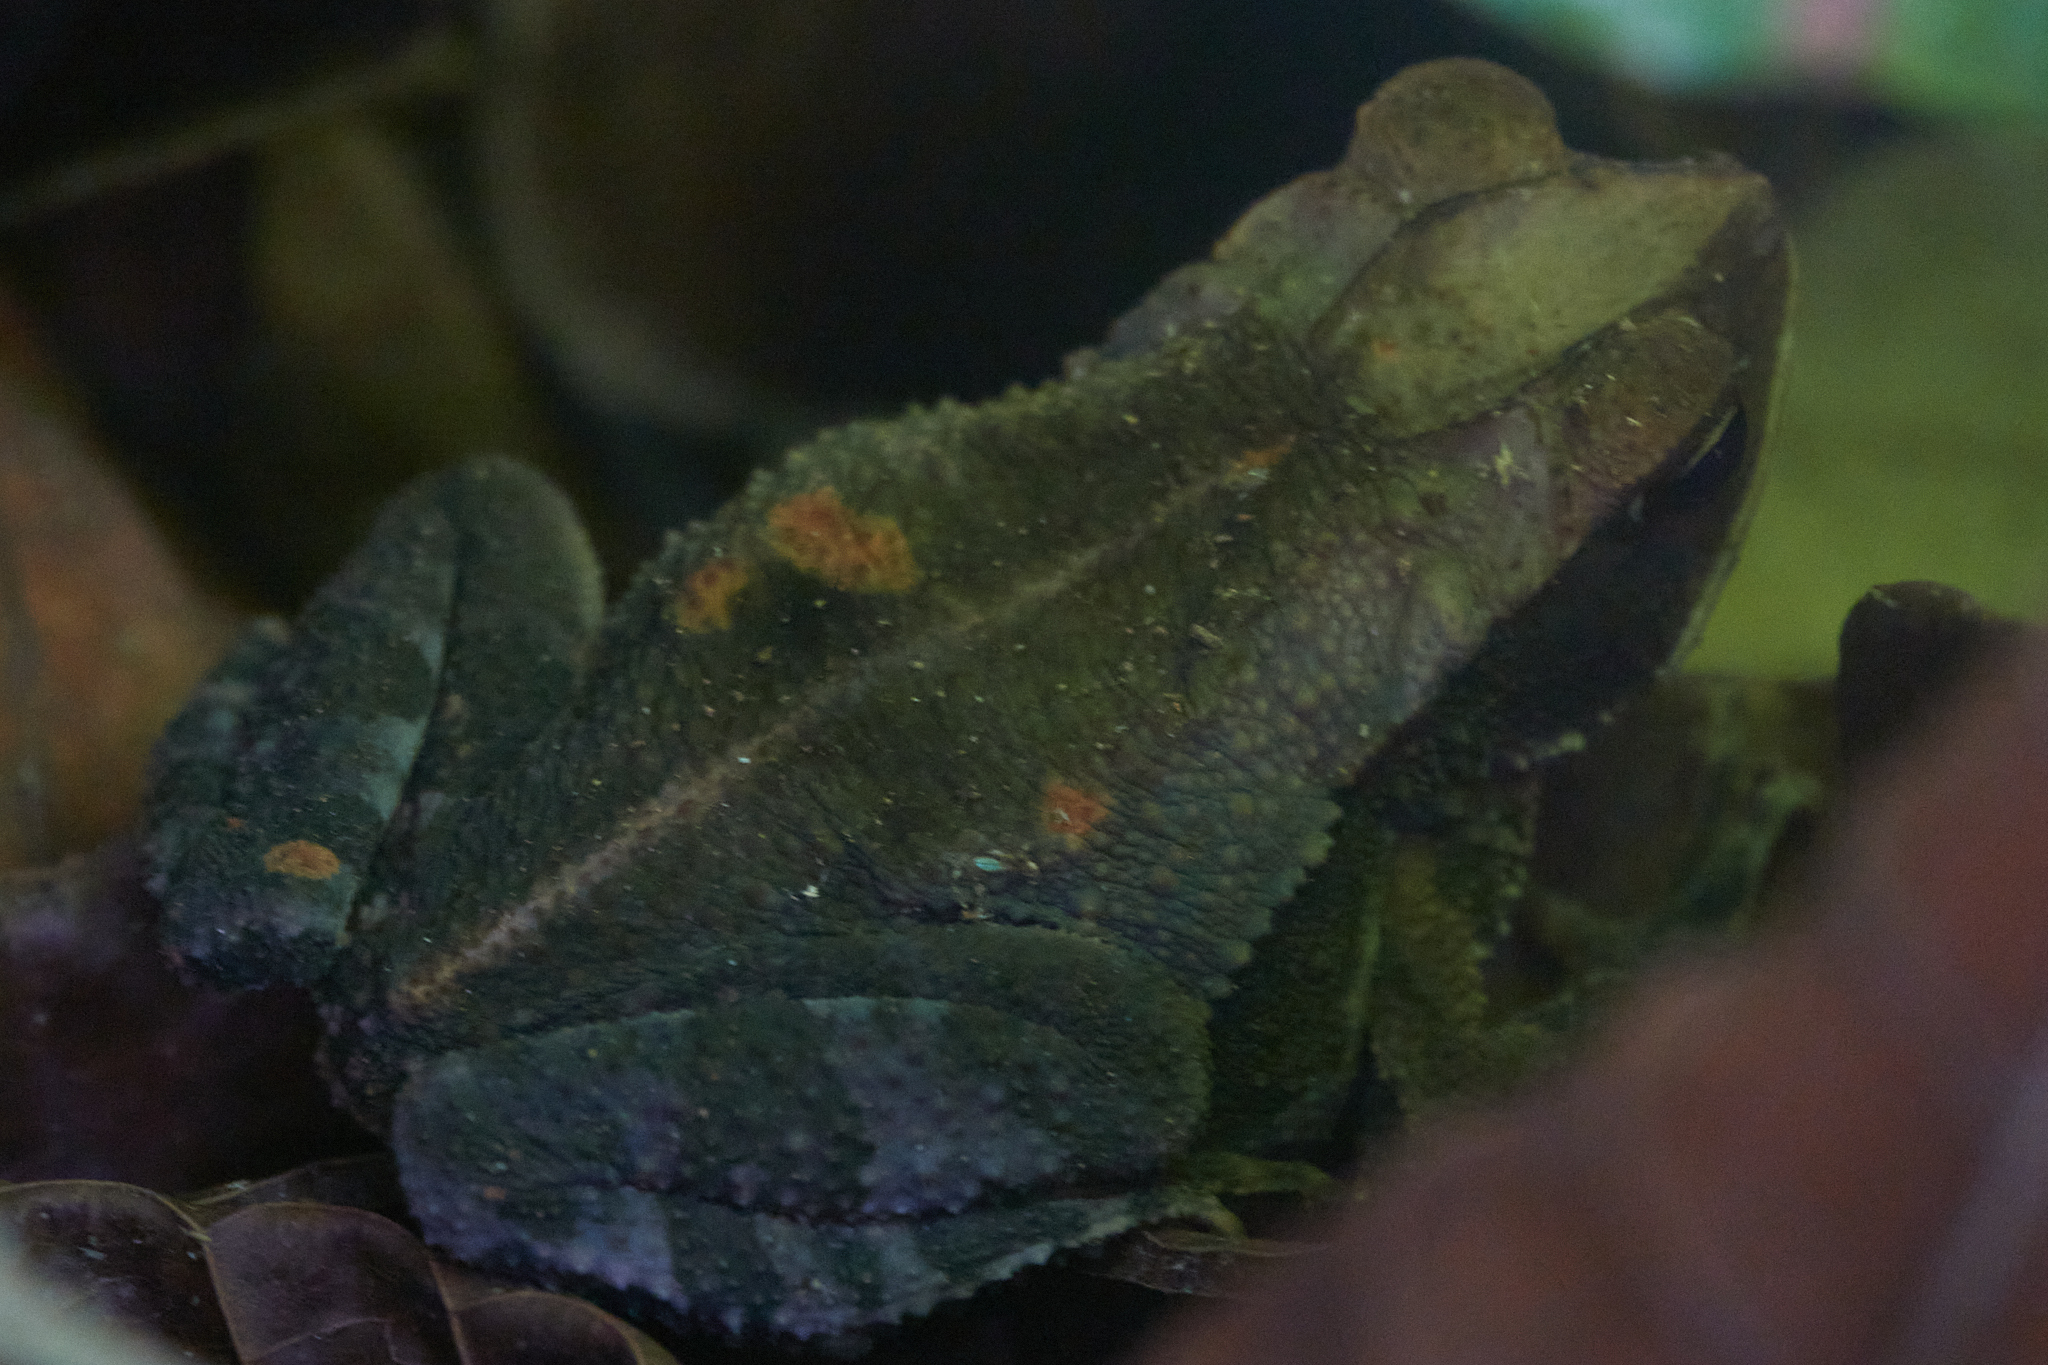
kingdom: Animalia
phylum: Chordata
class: Amphibia
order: Anura
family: Bufonidae
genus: Incilius
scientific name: Incilius aucoinae
